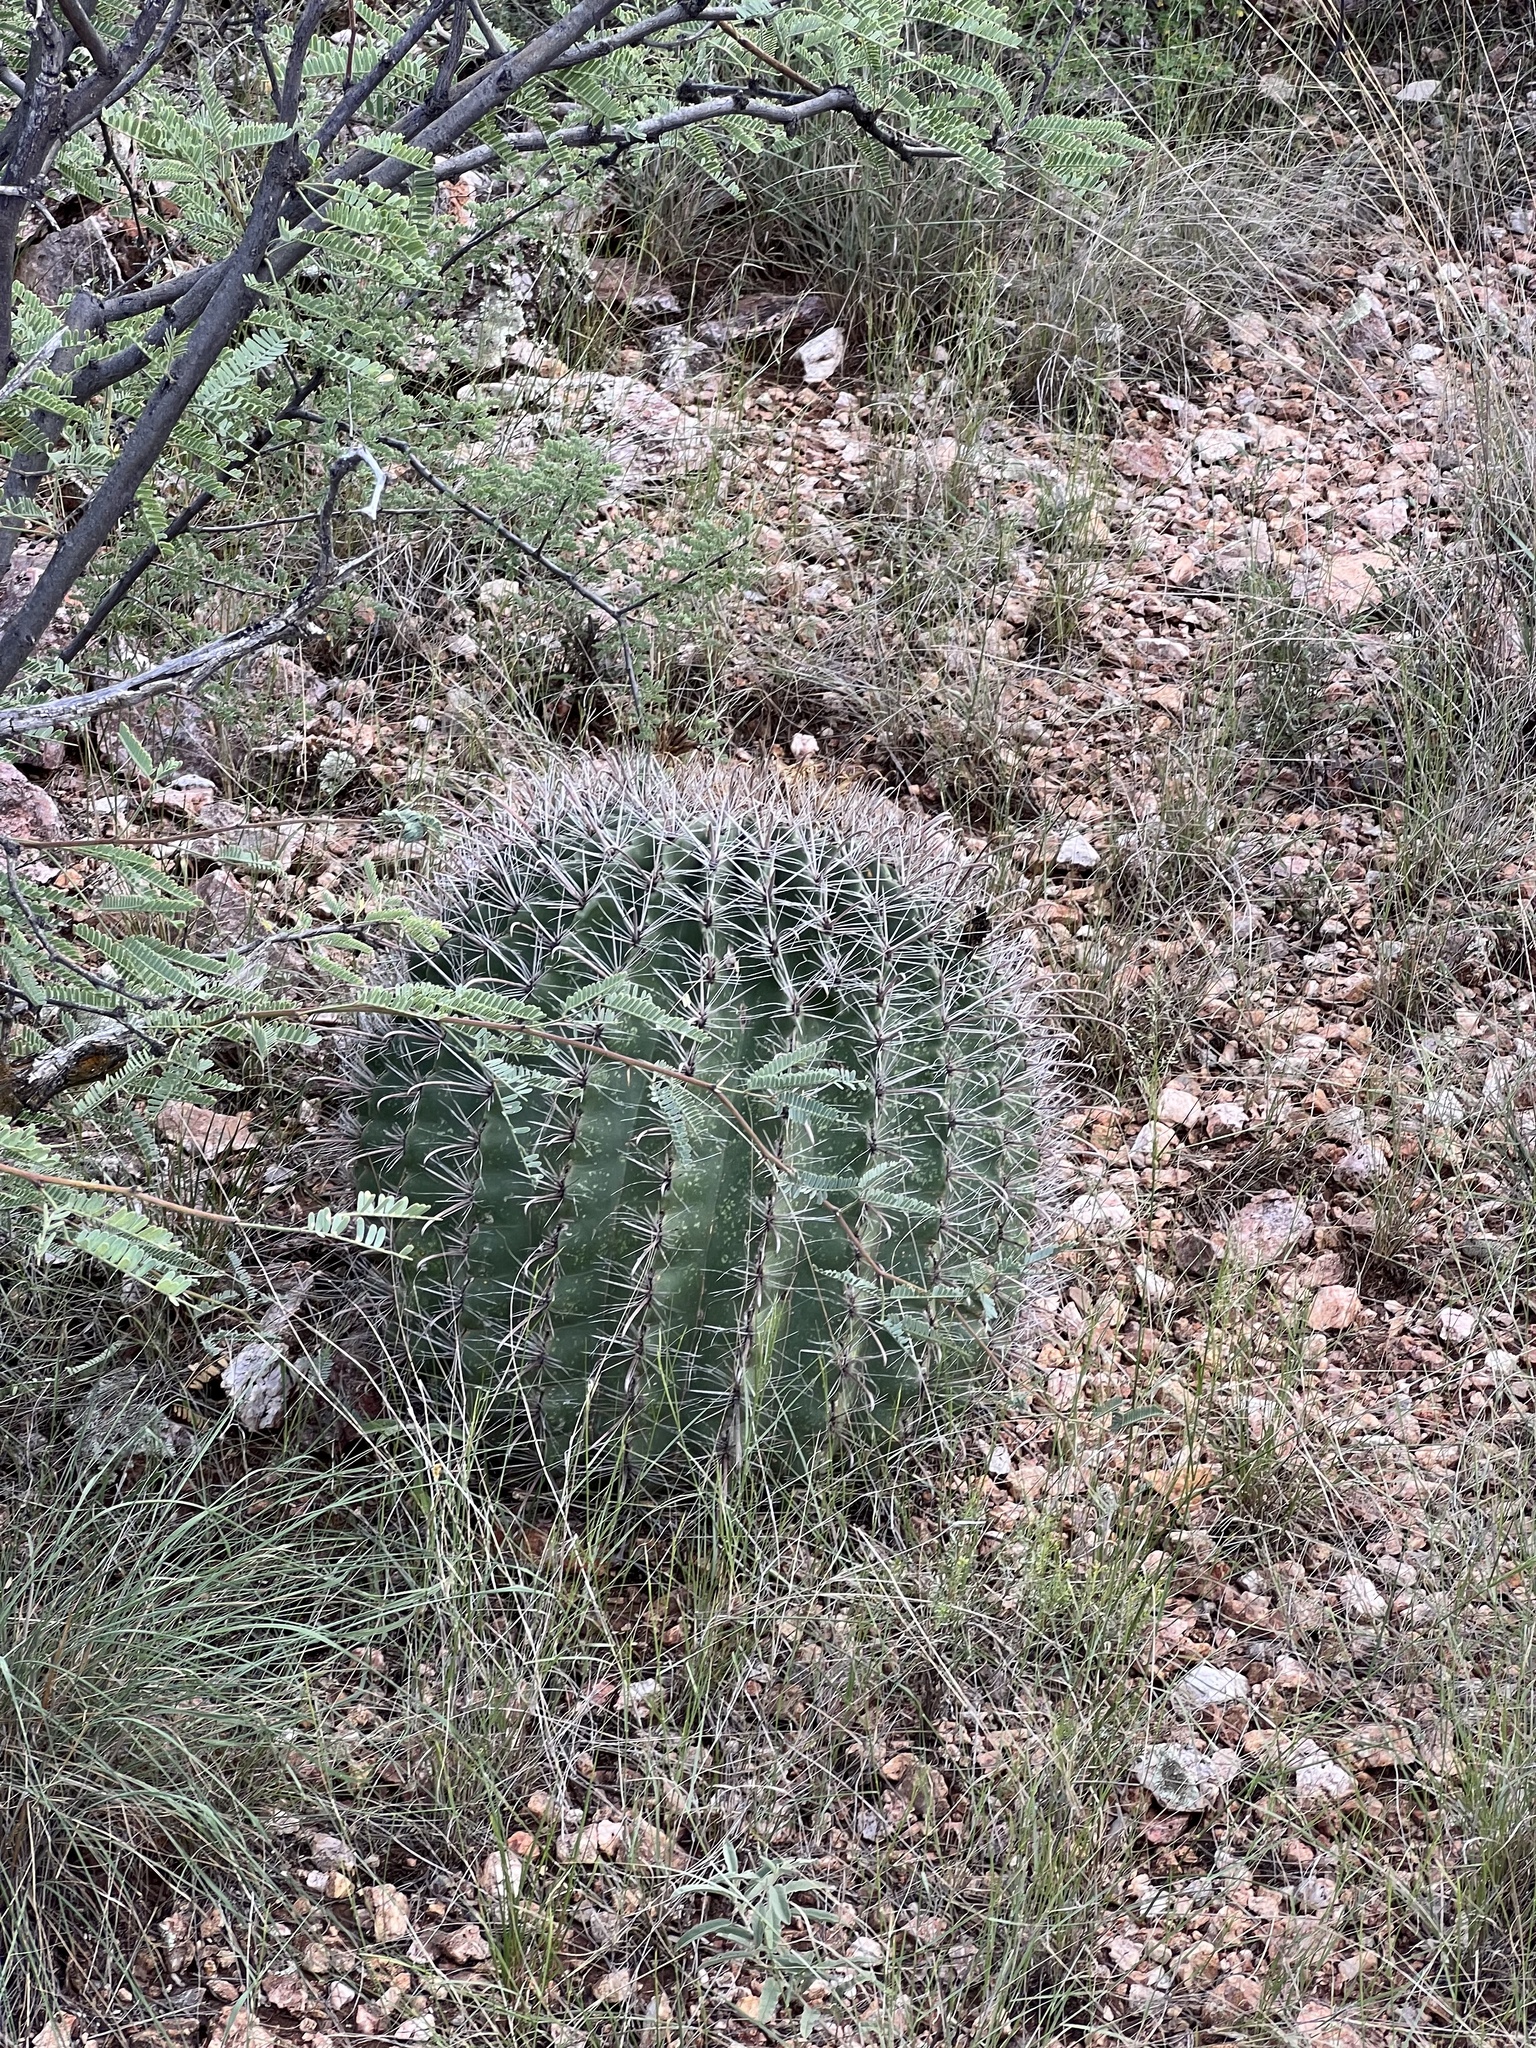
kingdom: Plantae
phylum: Tracheophyta
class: Magnoliopsida
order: Caryophyllales
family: Cactaceae
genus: Ferocactus
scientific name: Ferocactus wislizeni
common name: Candy barrel cactus
